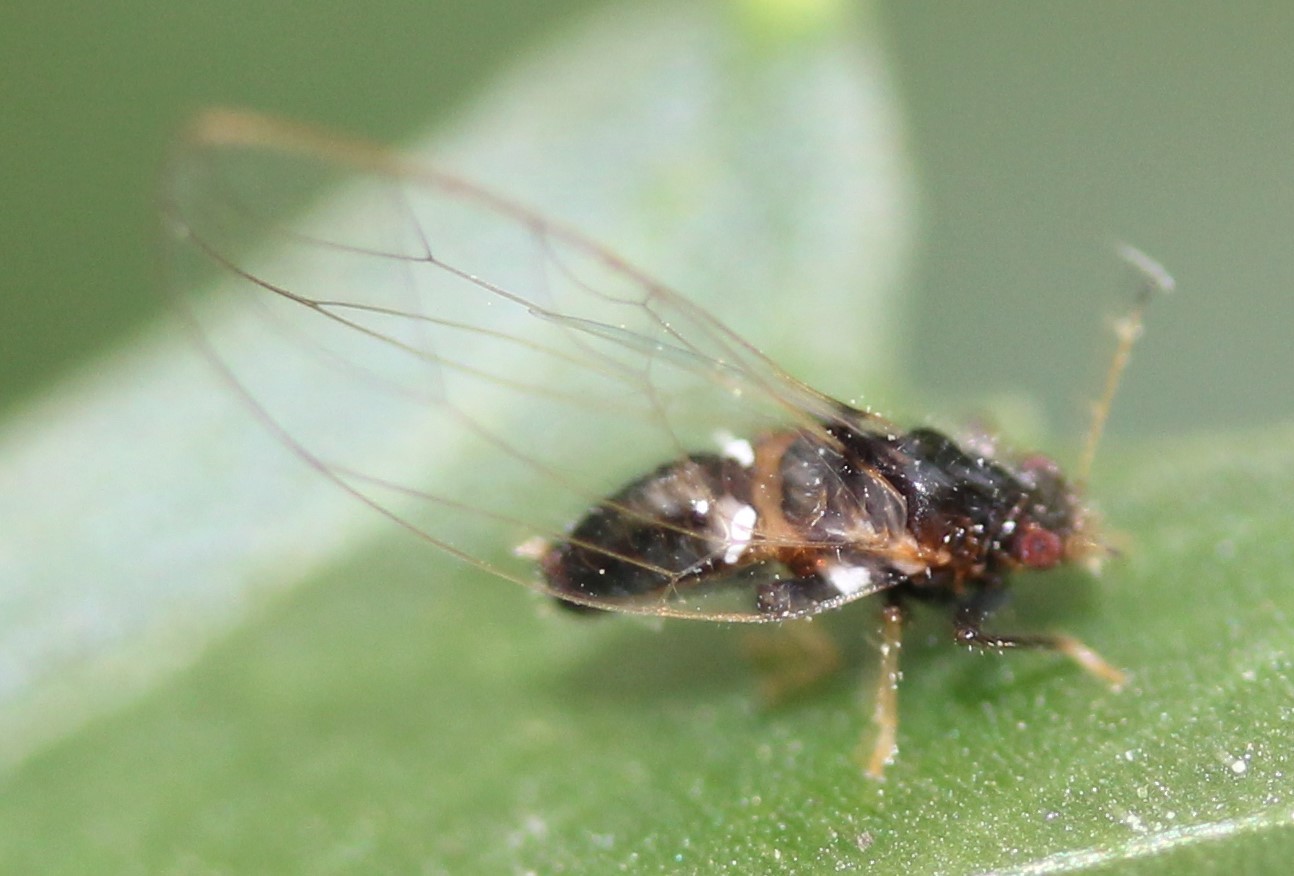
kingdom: Animalia
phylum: Arthropoda
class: Insecta
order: Hemiptera
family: Triozidae
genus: Baeoalitriozus
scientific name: Baeoalitriozus diospyri
